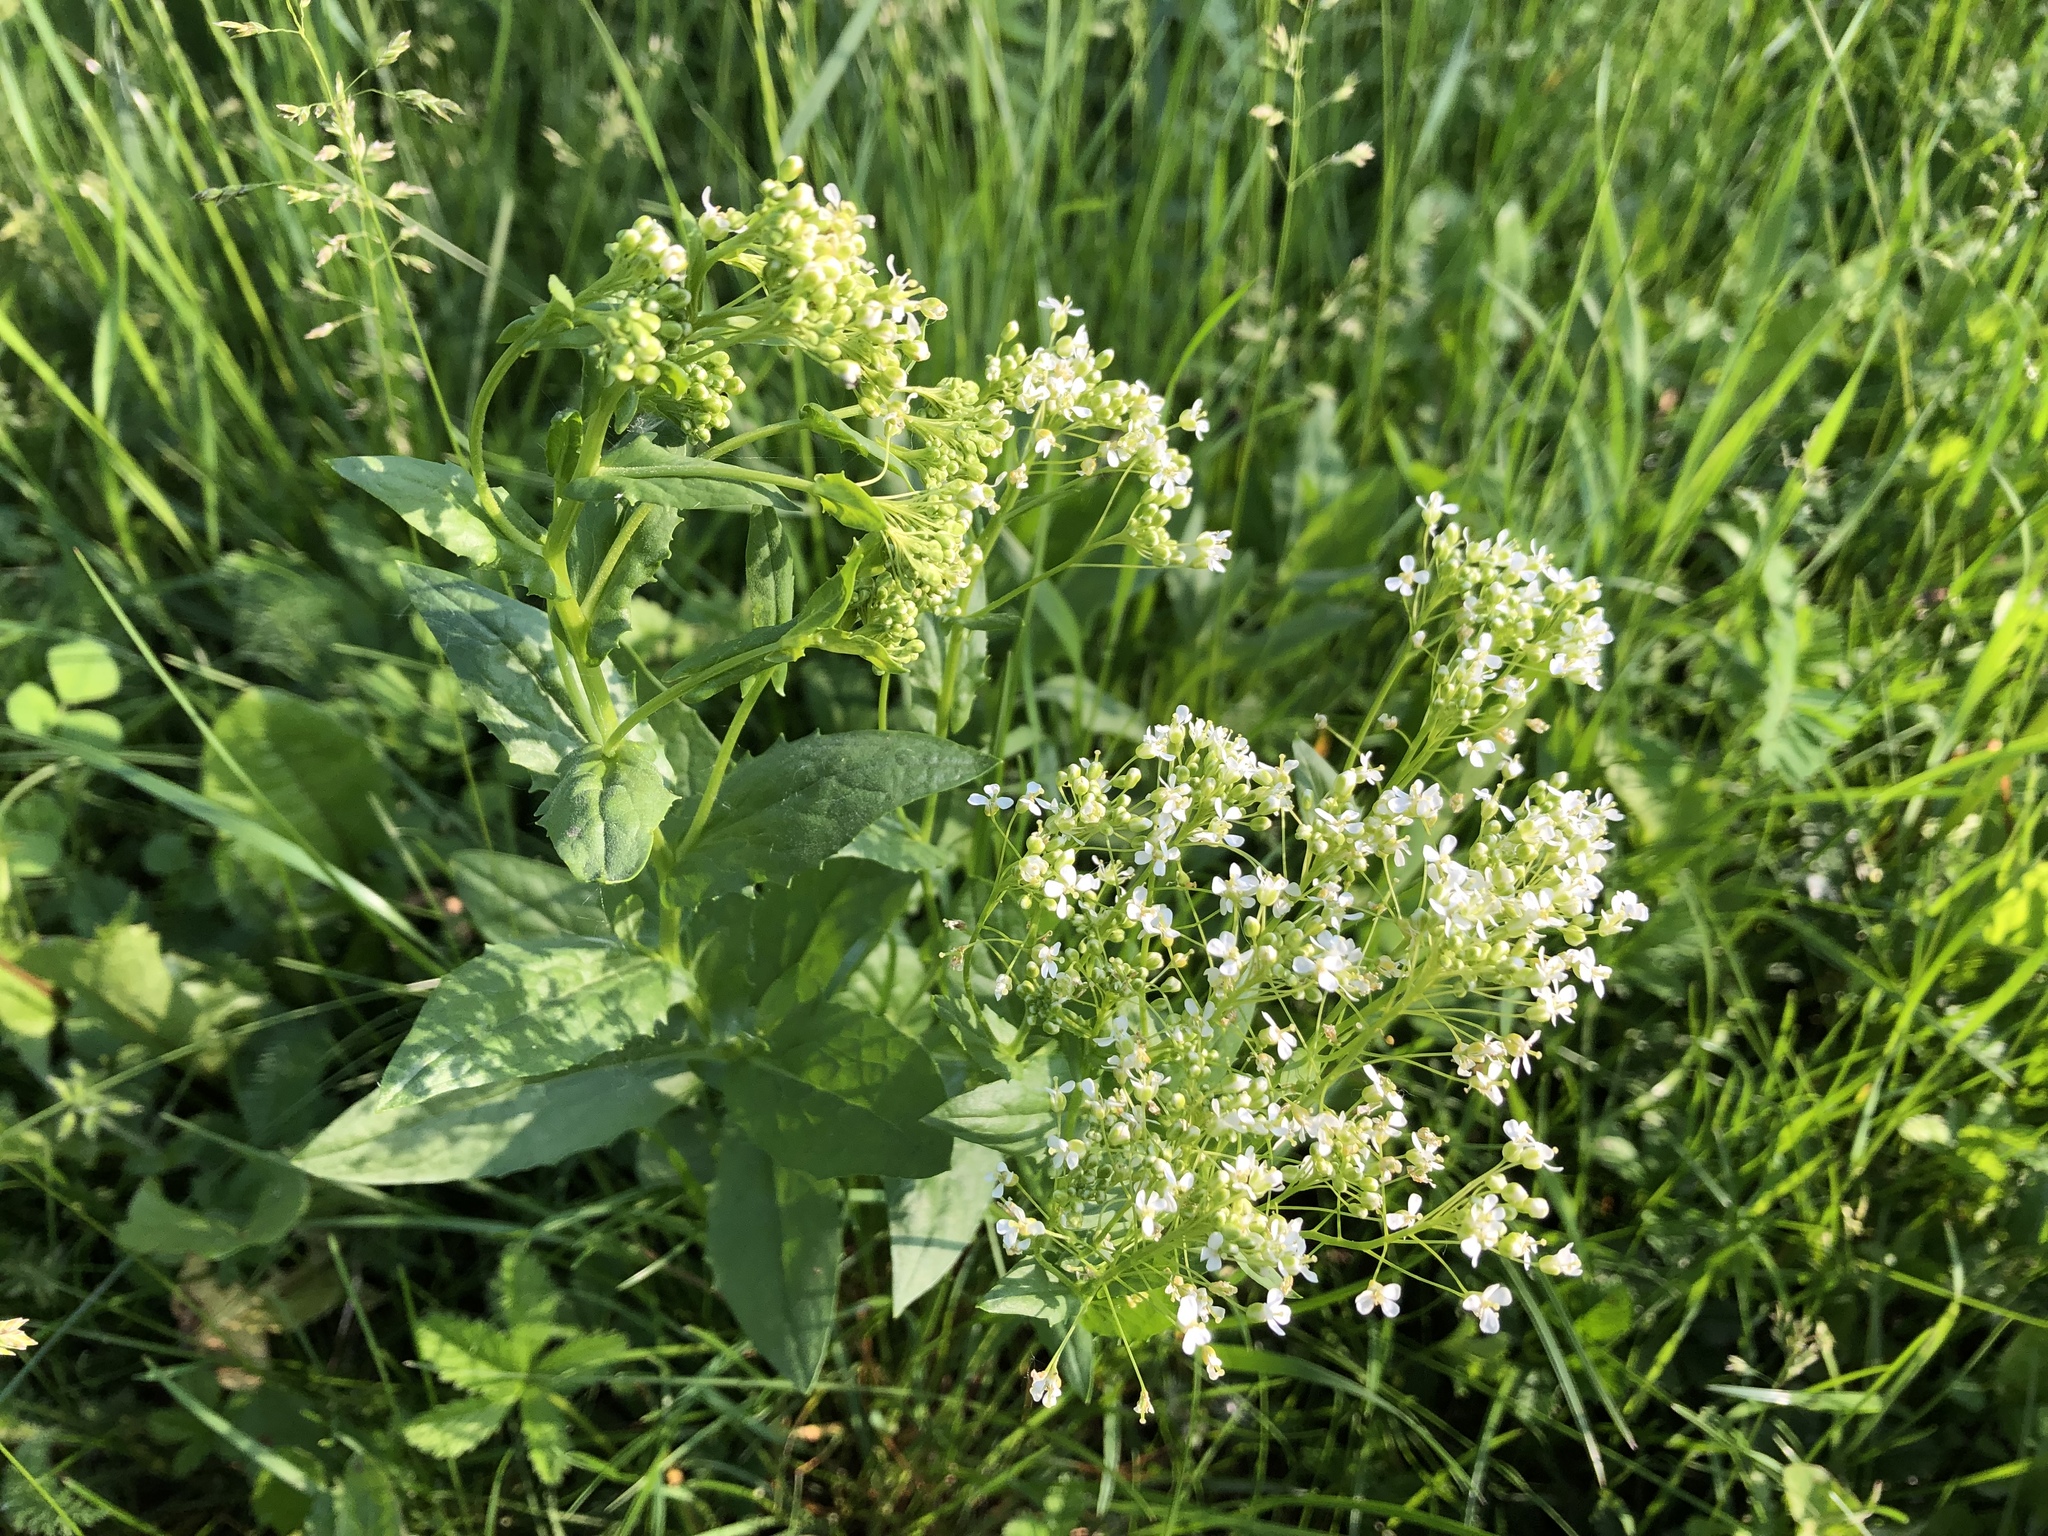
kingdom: Plantae
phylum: Tracheophyta
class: Magnoliopsida
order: Brassicales
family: Brassicaceae
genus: Lepidium
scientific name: Lepidium draba
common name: Hoary cress
